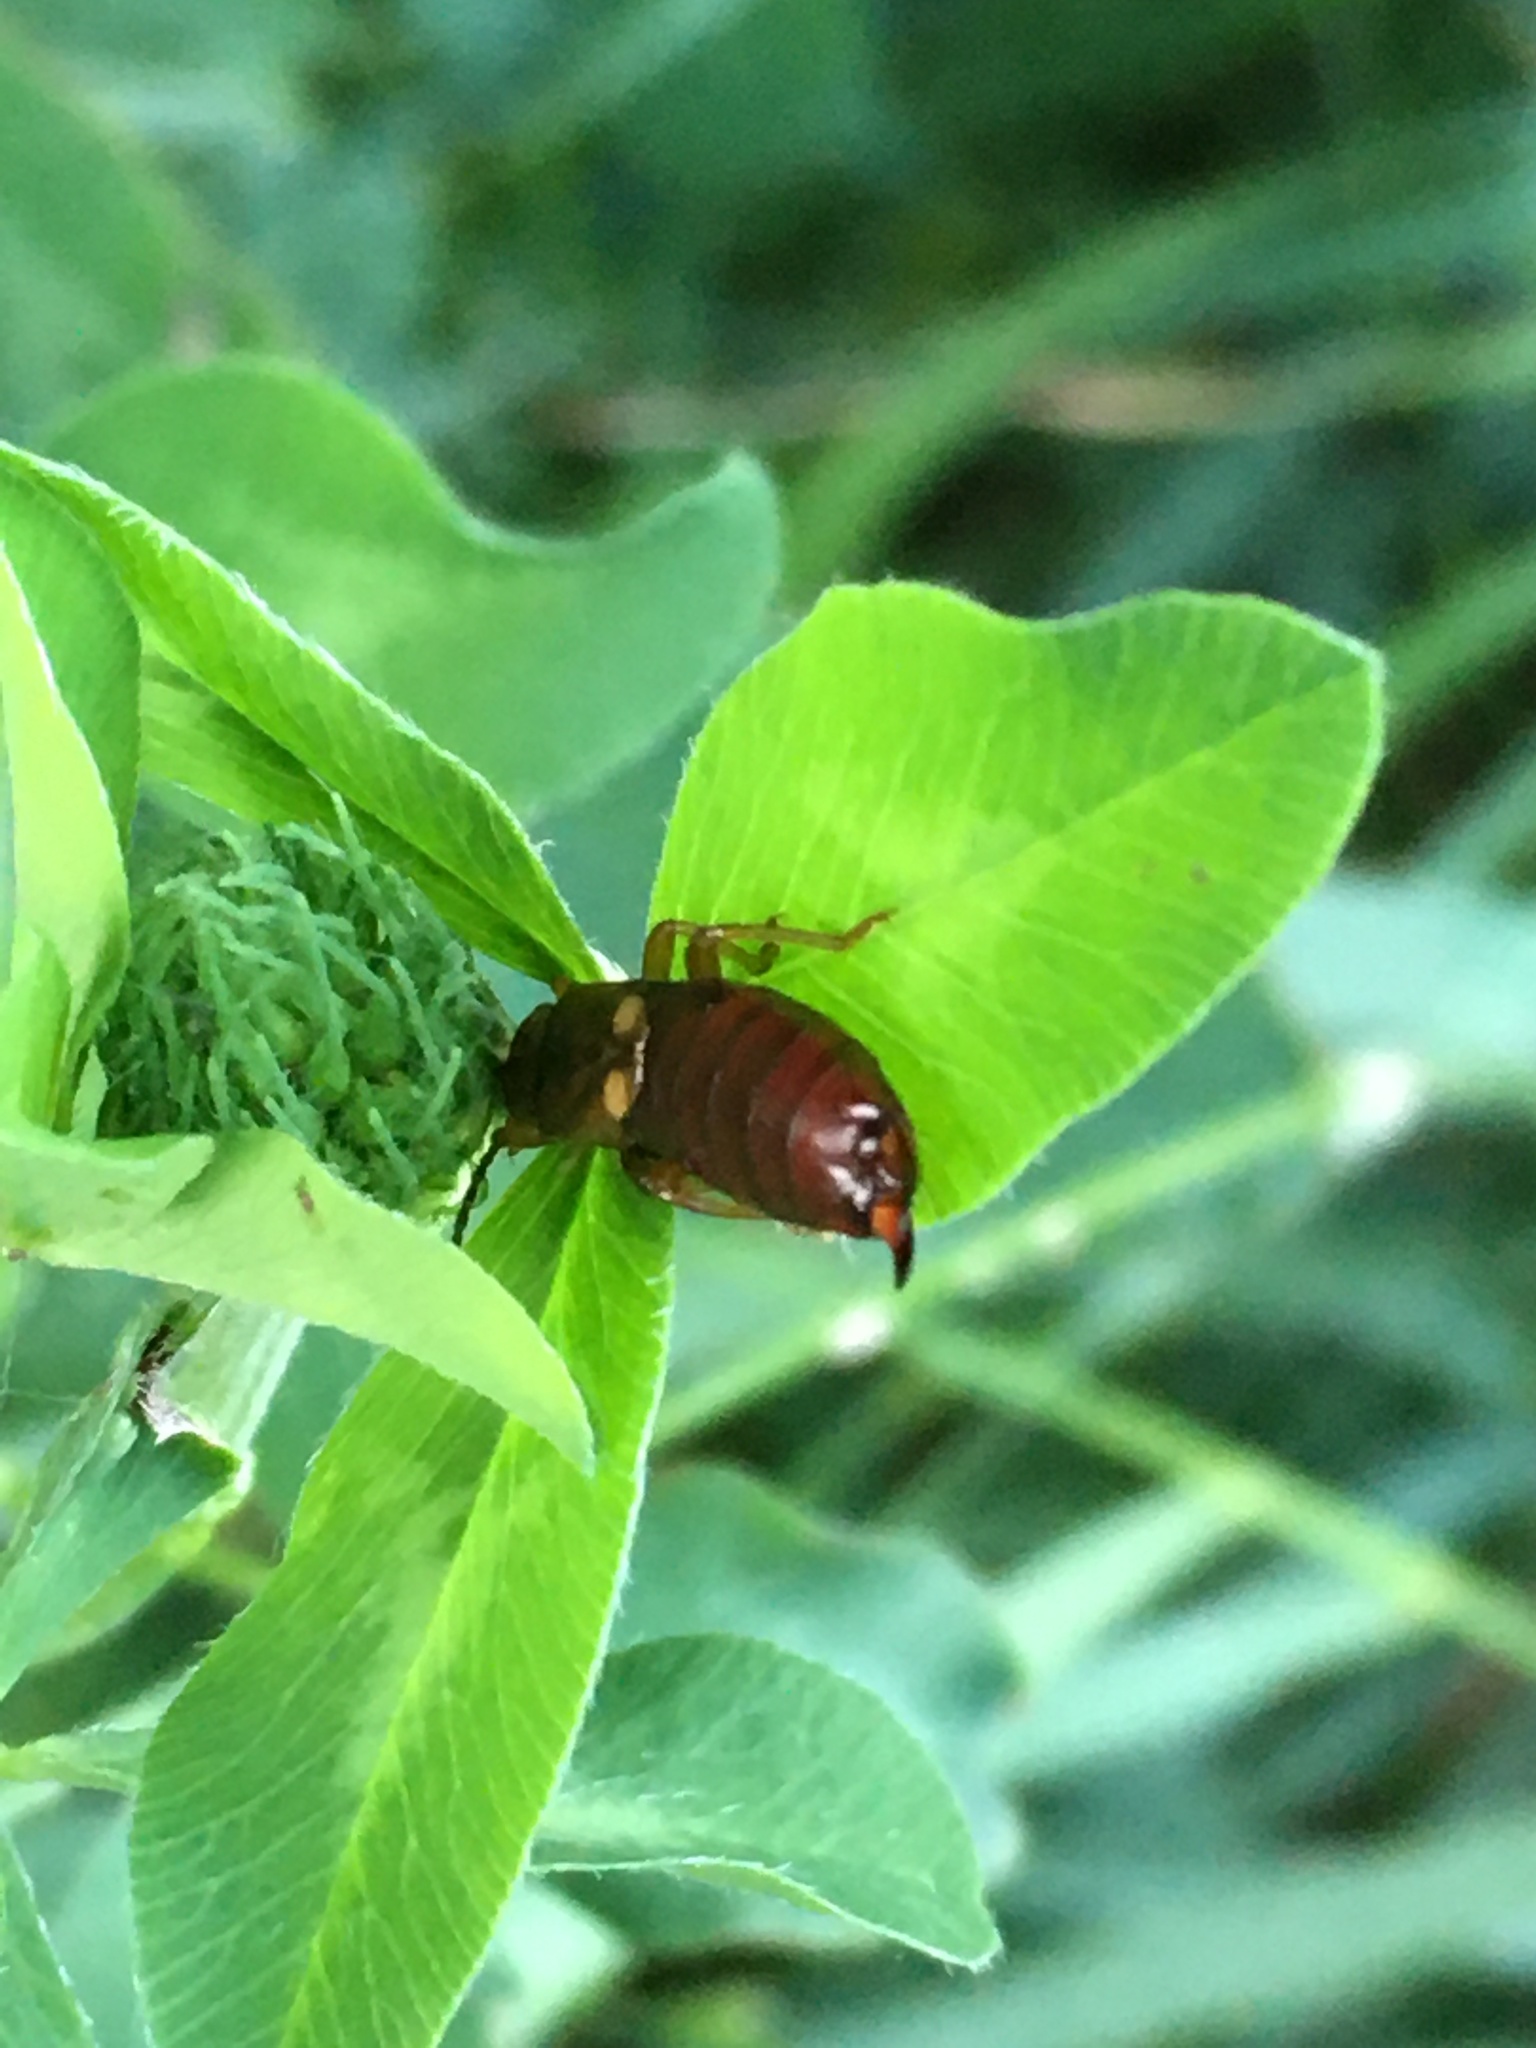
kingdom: Animalia
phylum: Arthropoda
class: Insecta
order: Dermaptera
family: Forficulidae
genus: Forficula
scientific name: Forficula
